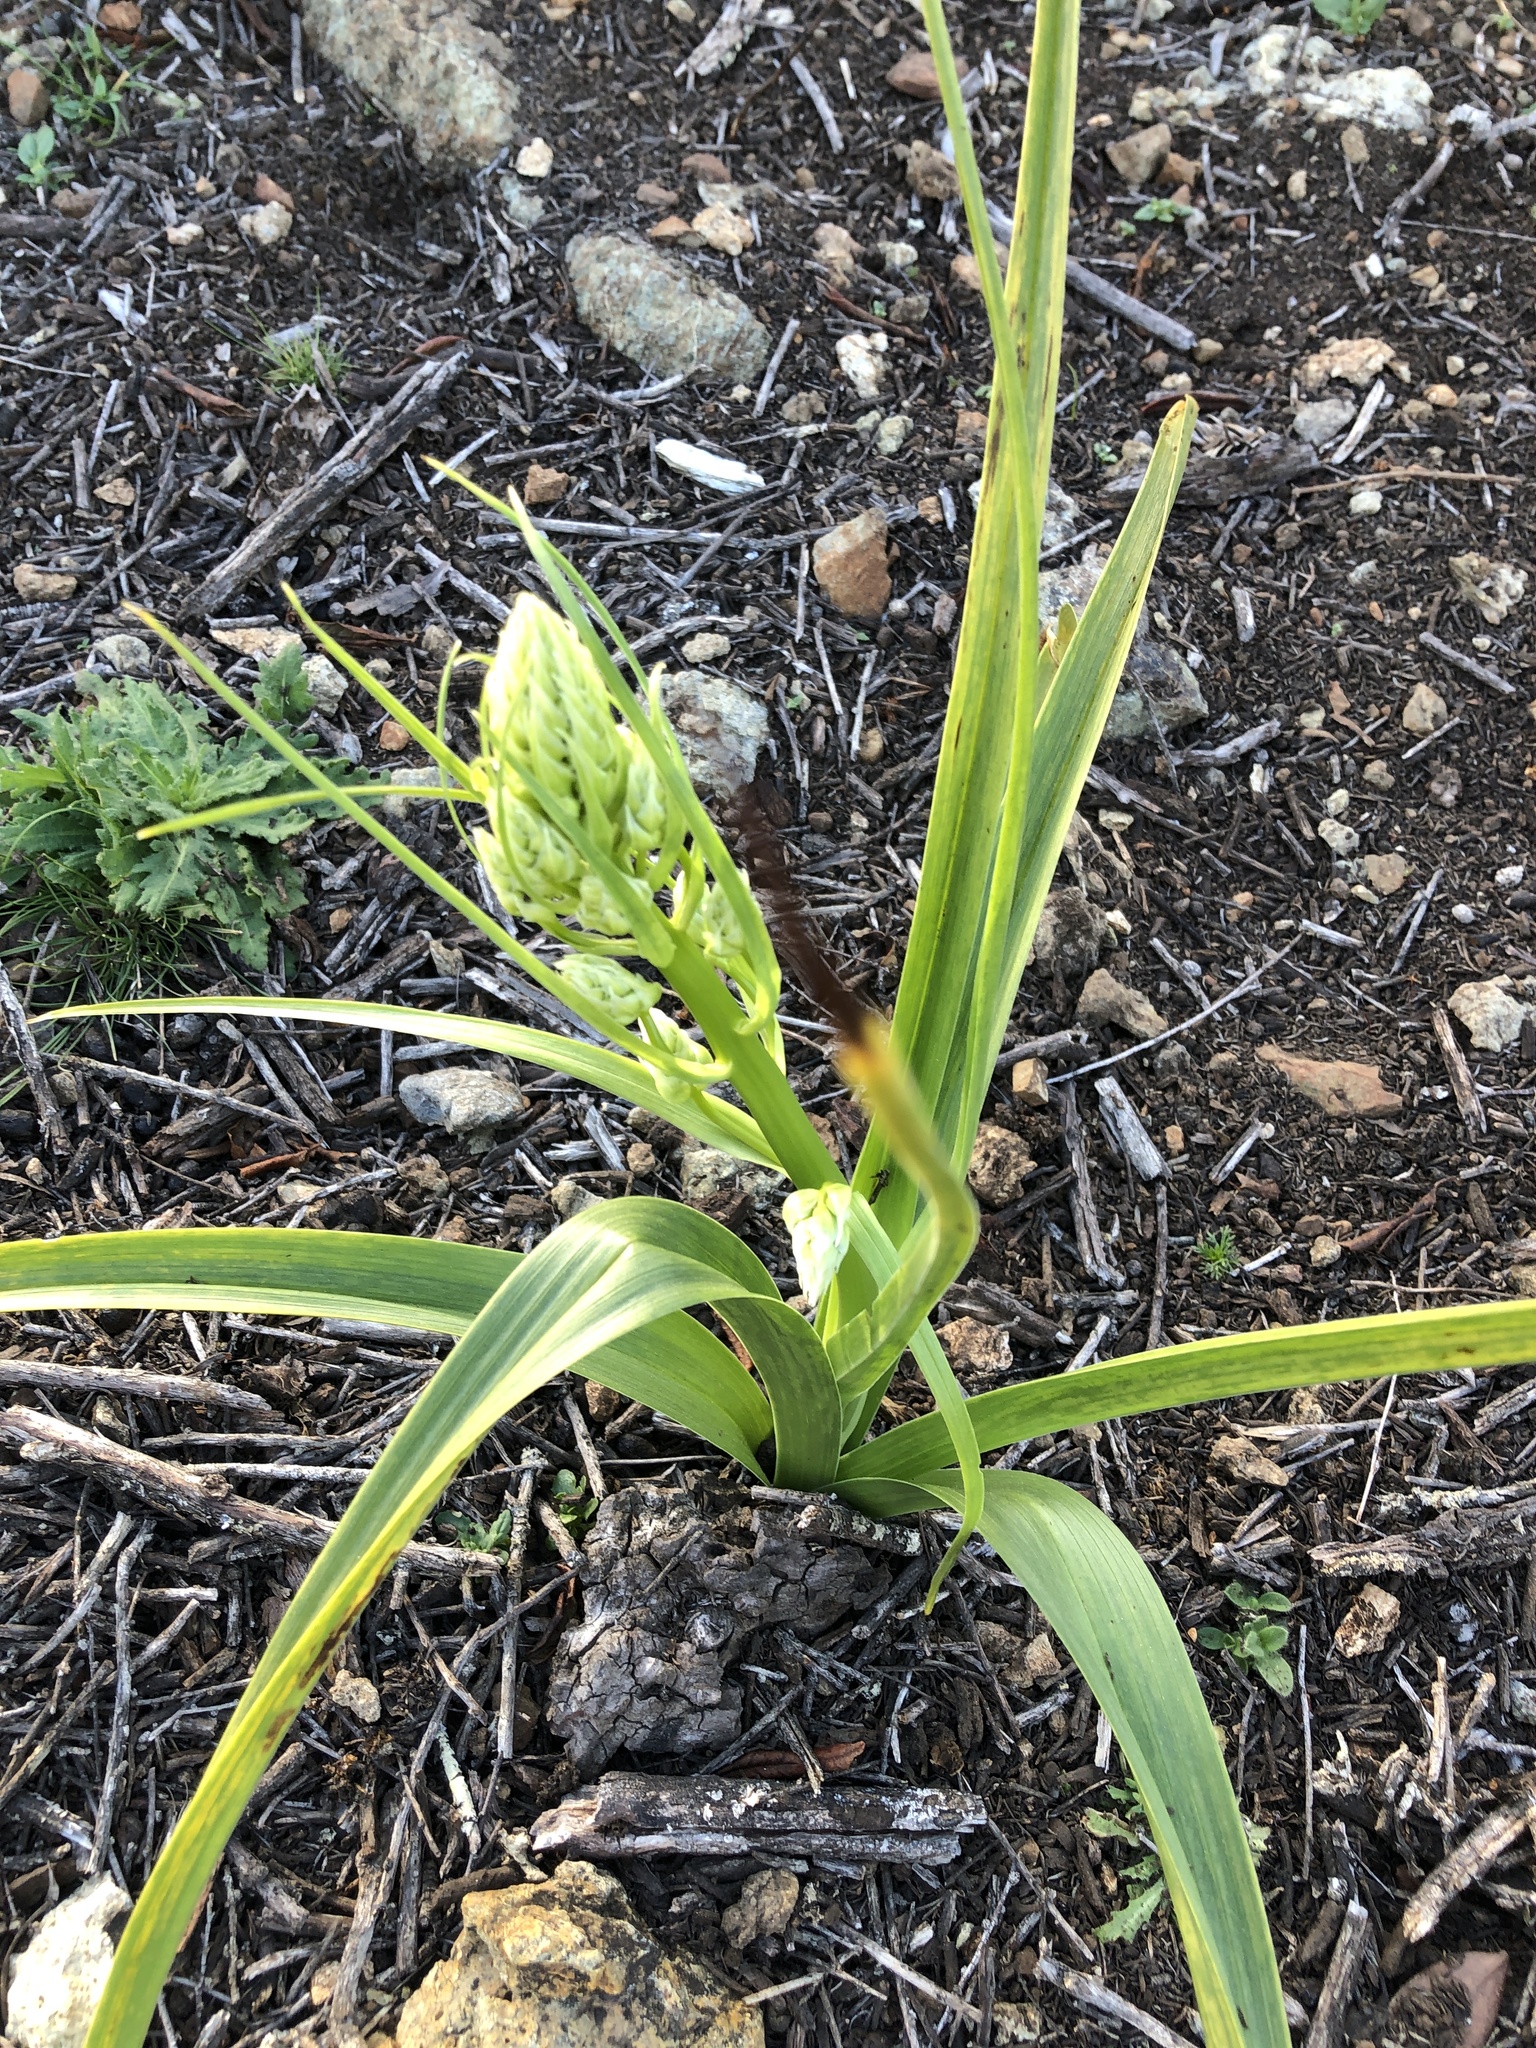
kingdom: Plantae
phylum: Tracheophyta
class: Liliopsida
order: Liliales
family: Melanthiaceae
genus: Toxicoscordion
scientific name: Toxicoscordion fremontii
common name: Fremont's death camas
